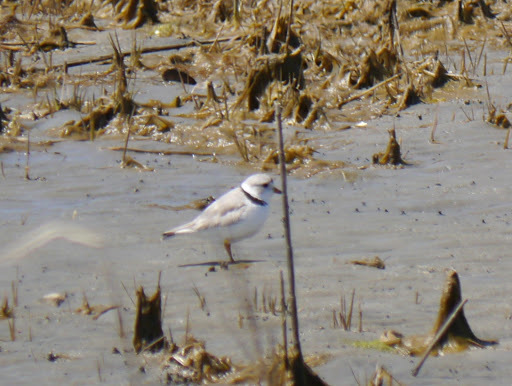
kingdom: Animalia
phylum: Chordata
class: Aves
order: Charadriiformes
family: Charadriidae
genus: Charadrius
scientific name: Charadrius melodus
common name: Piping plover
